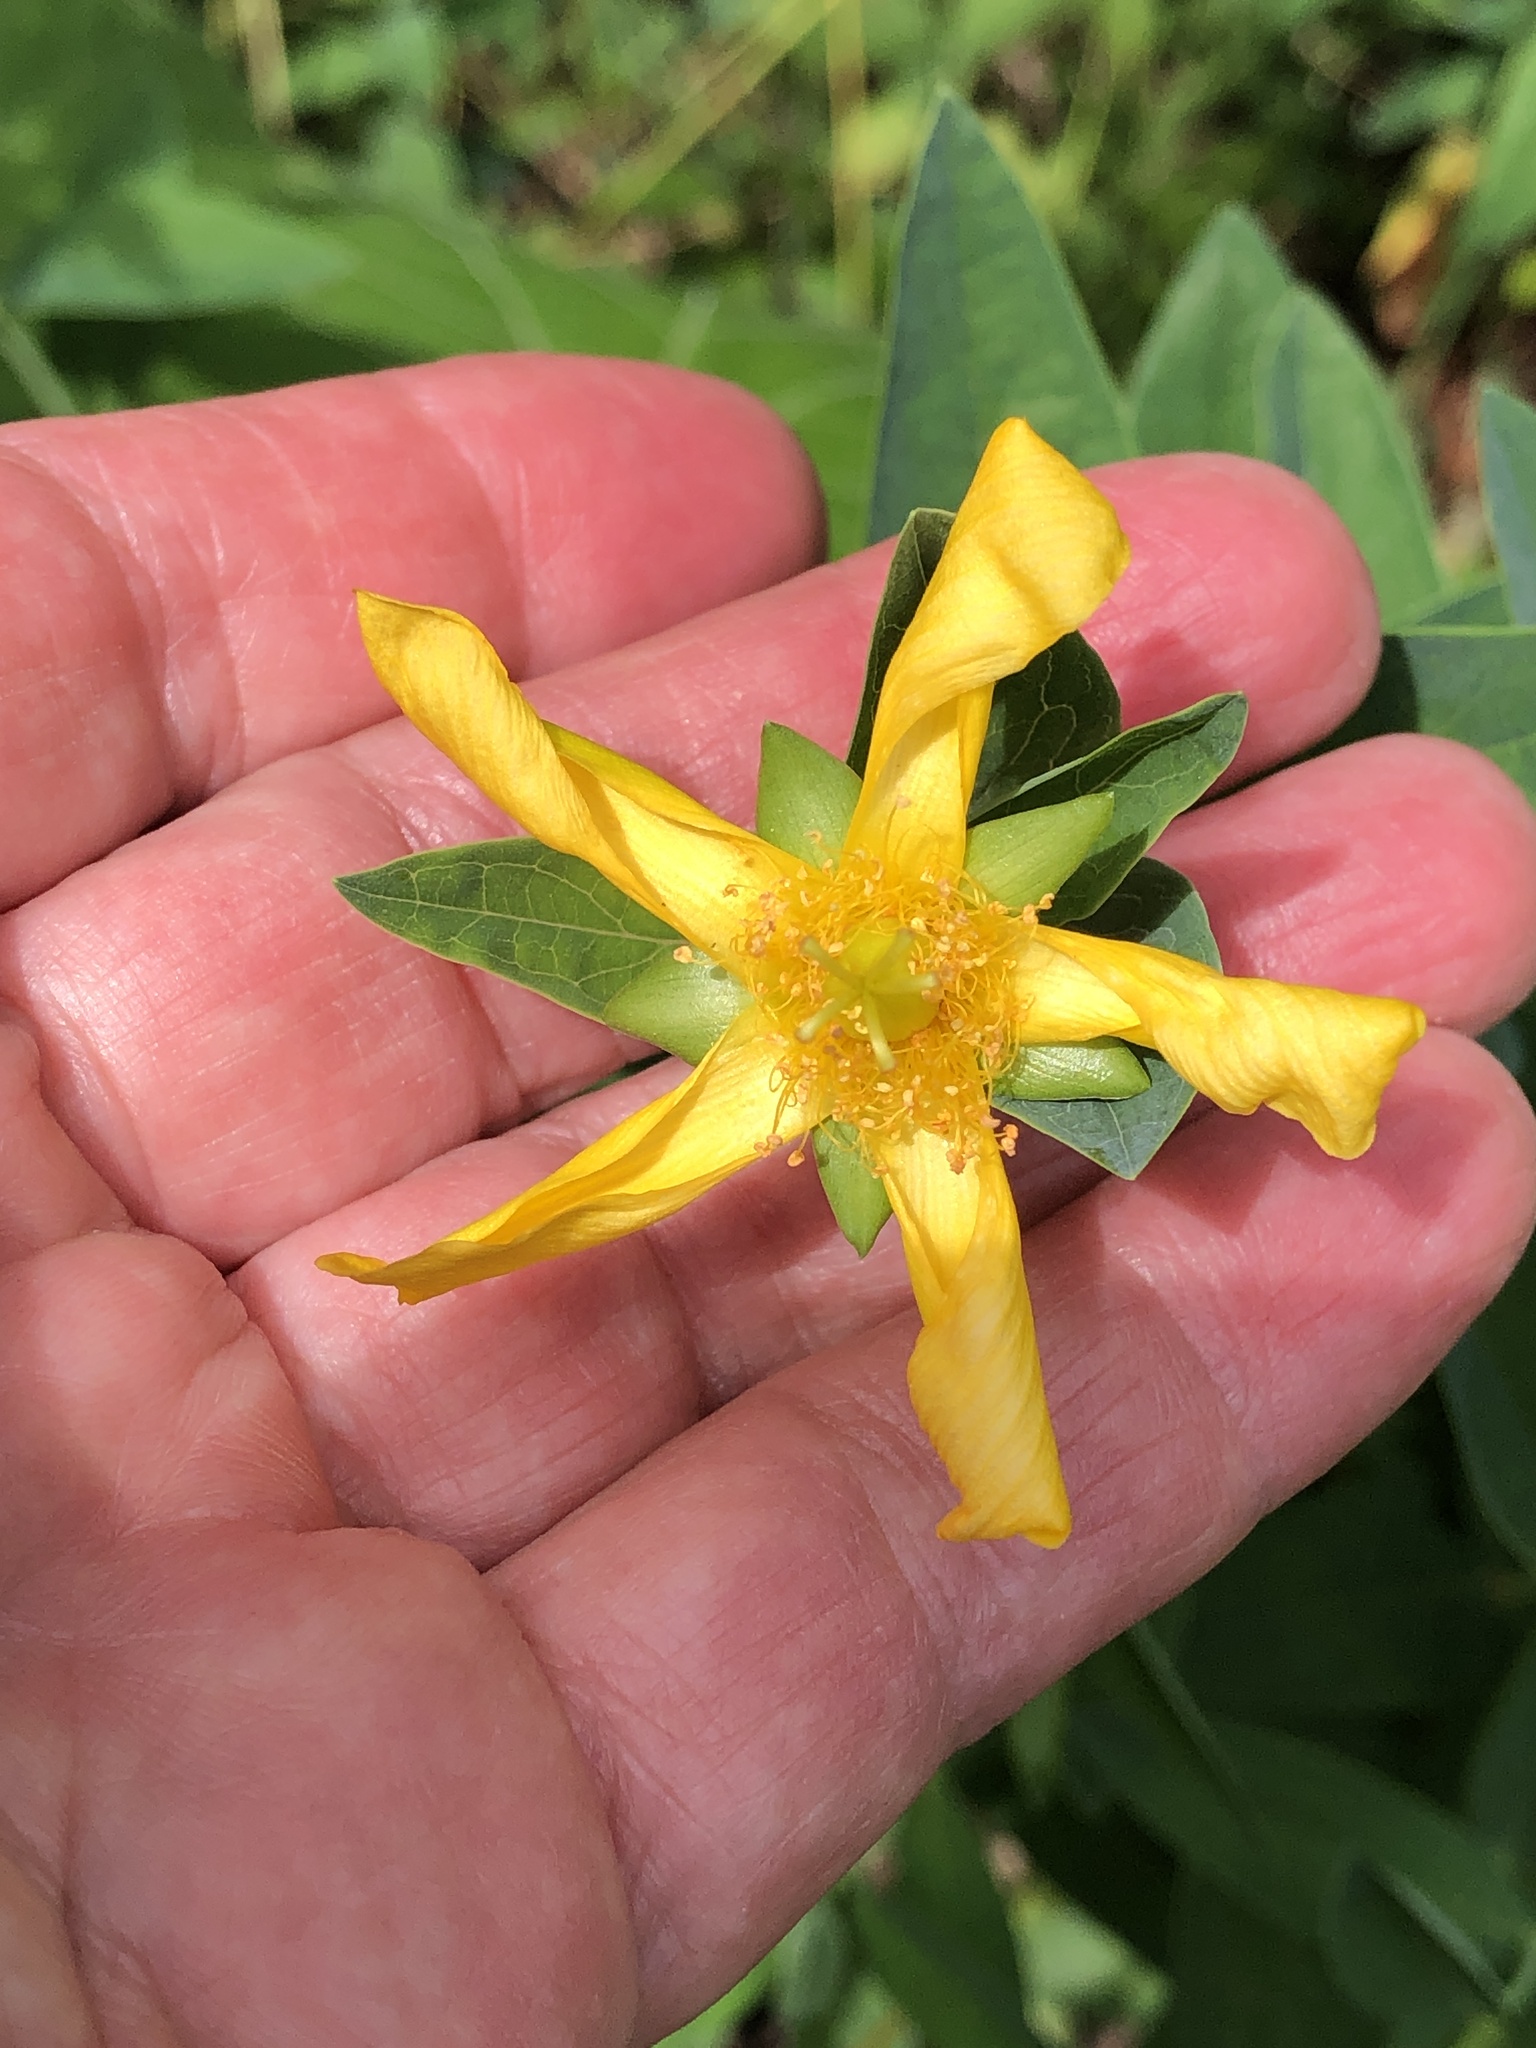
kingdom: Plantae
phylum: Tracheophyta
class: Magnoliopsida
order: Malpighiales
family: Hypericaceae
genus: Hypericum
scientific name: Hypericum ascyron
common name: Giant st. john's-wort
